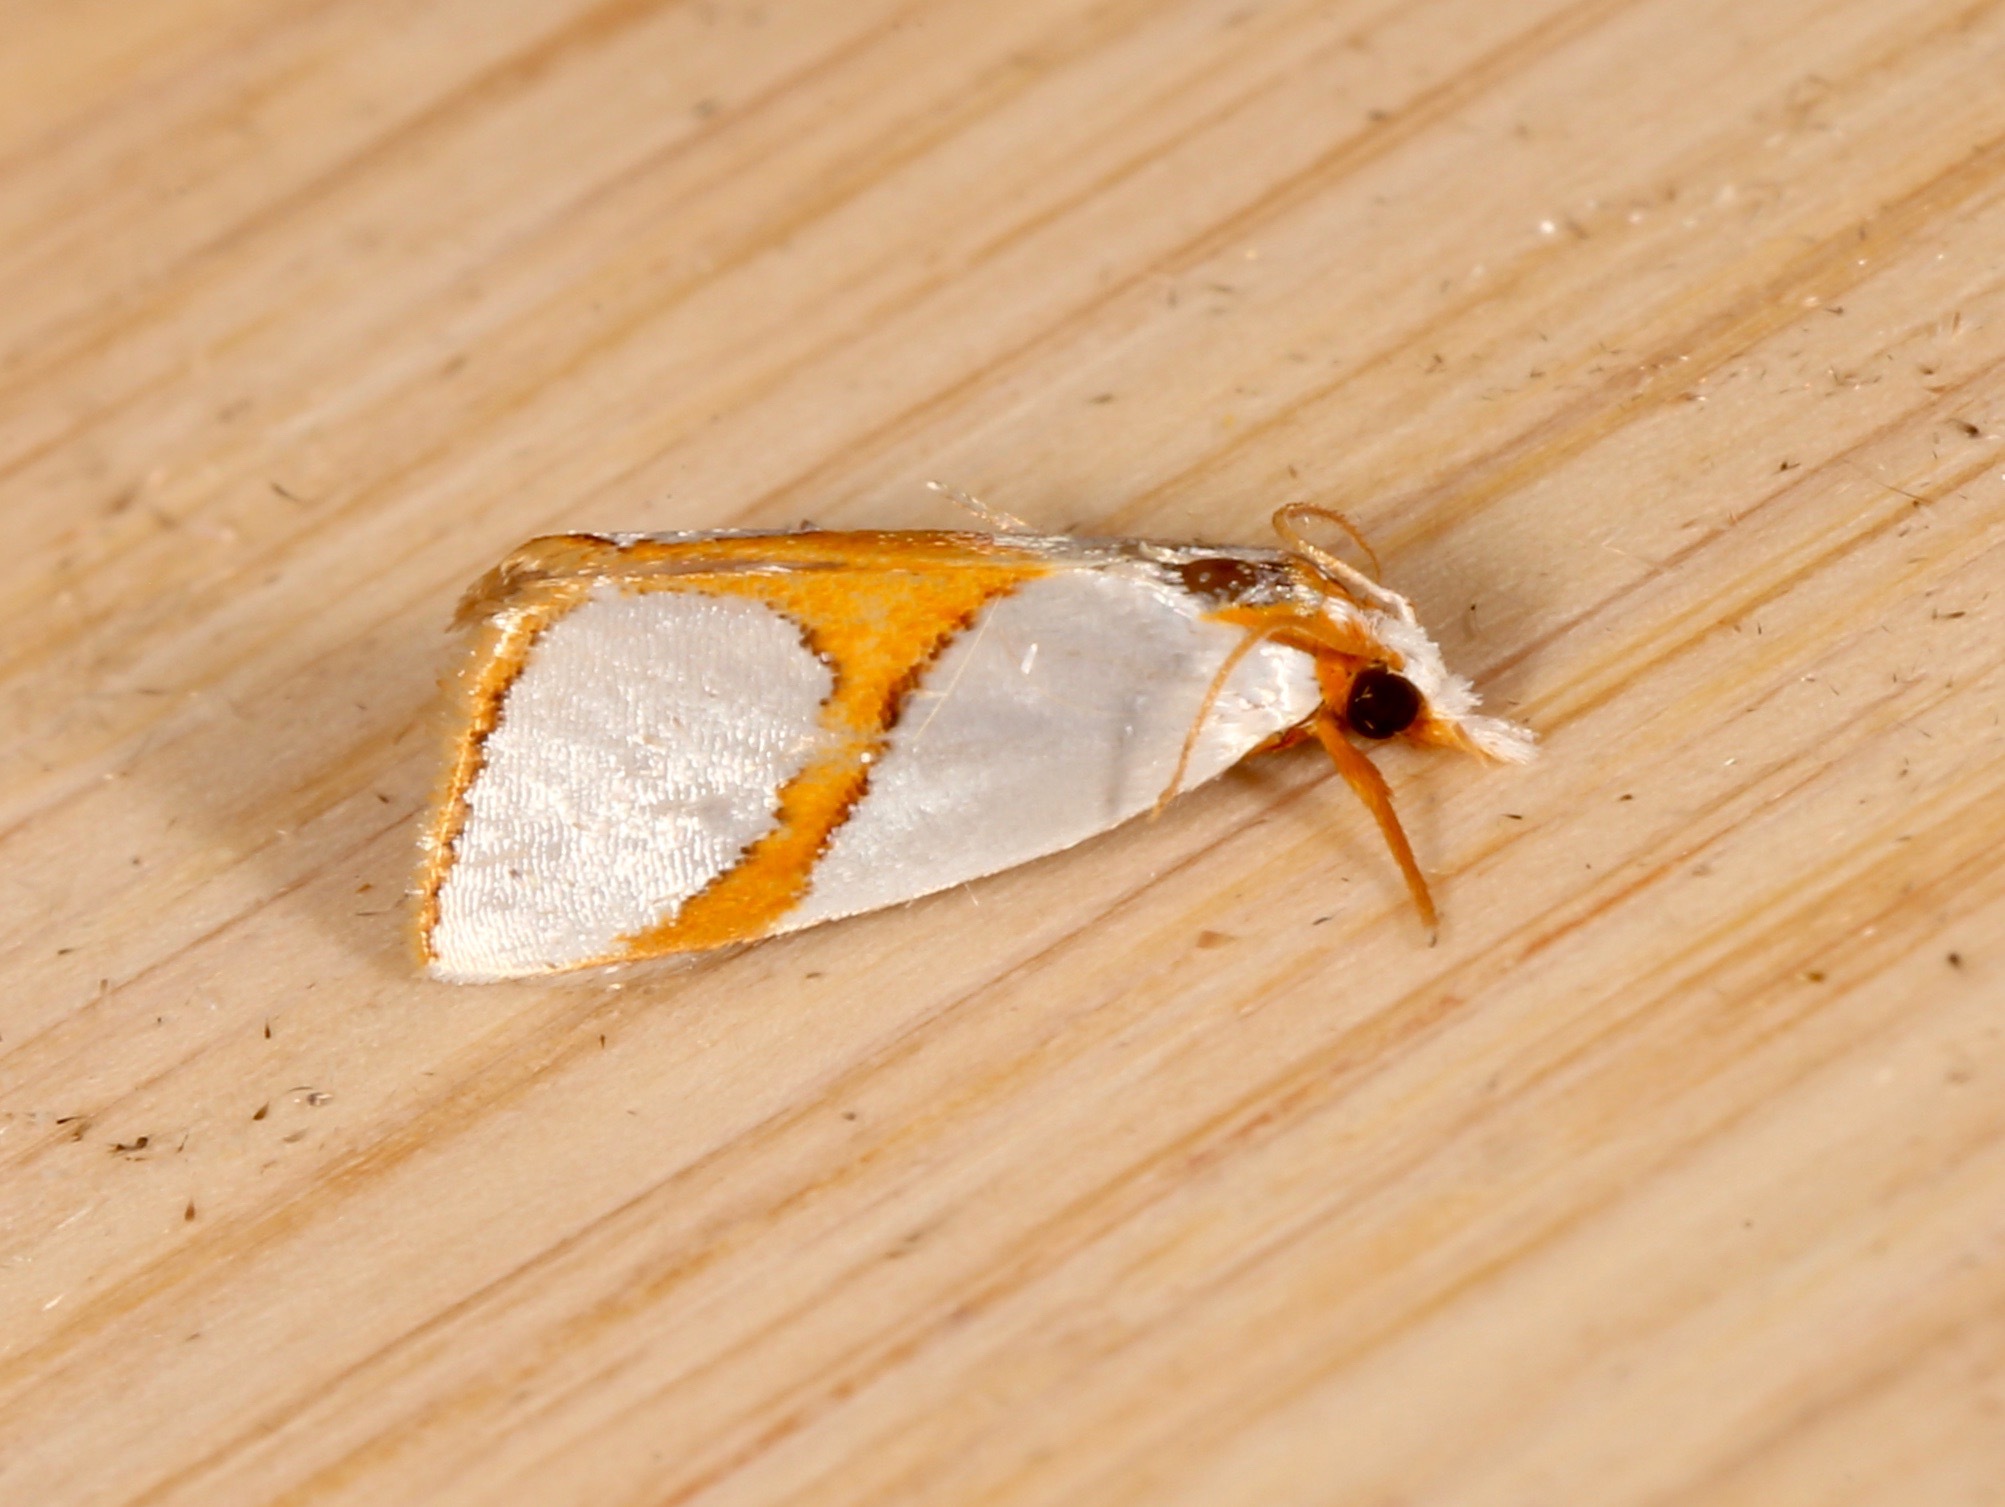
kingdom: Animalia
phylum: Arthropoda
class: Insecta
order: Lepidoptera
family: Crambidae
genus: Argyria
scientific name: Argyria auratella
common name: Curve-lined argyria moth
